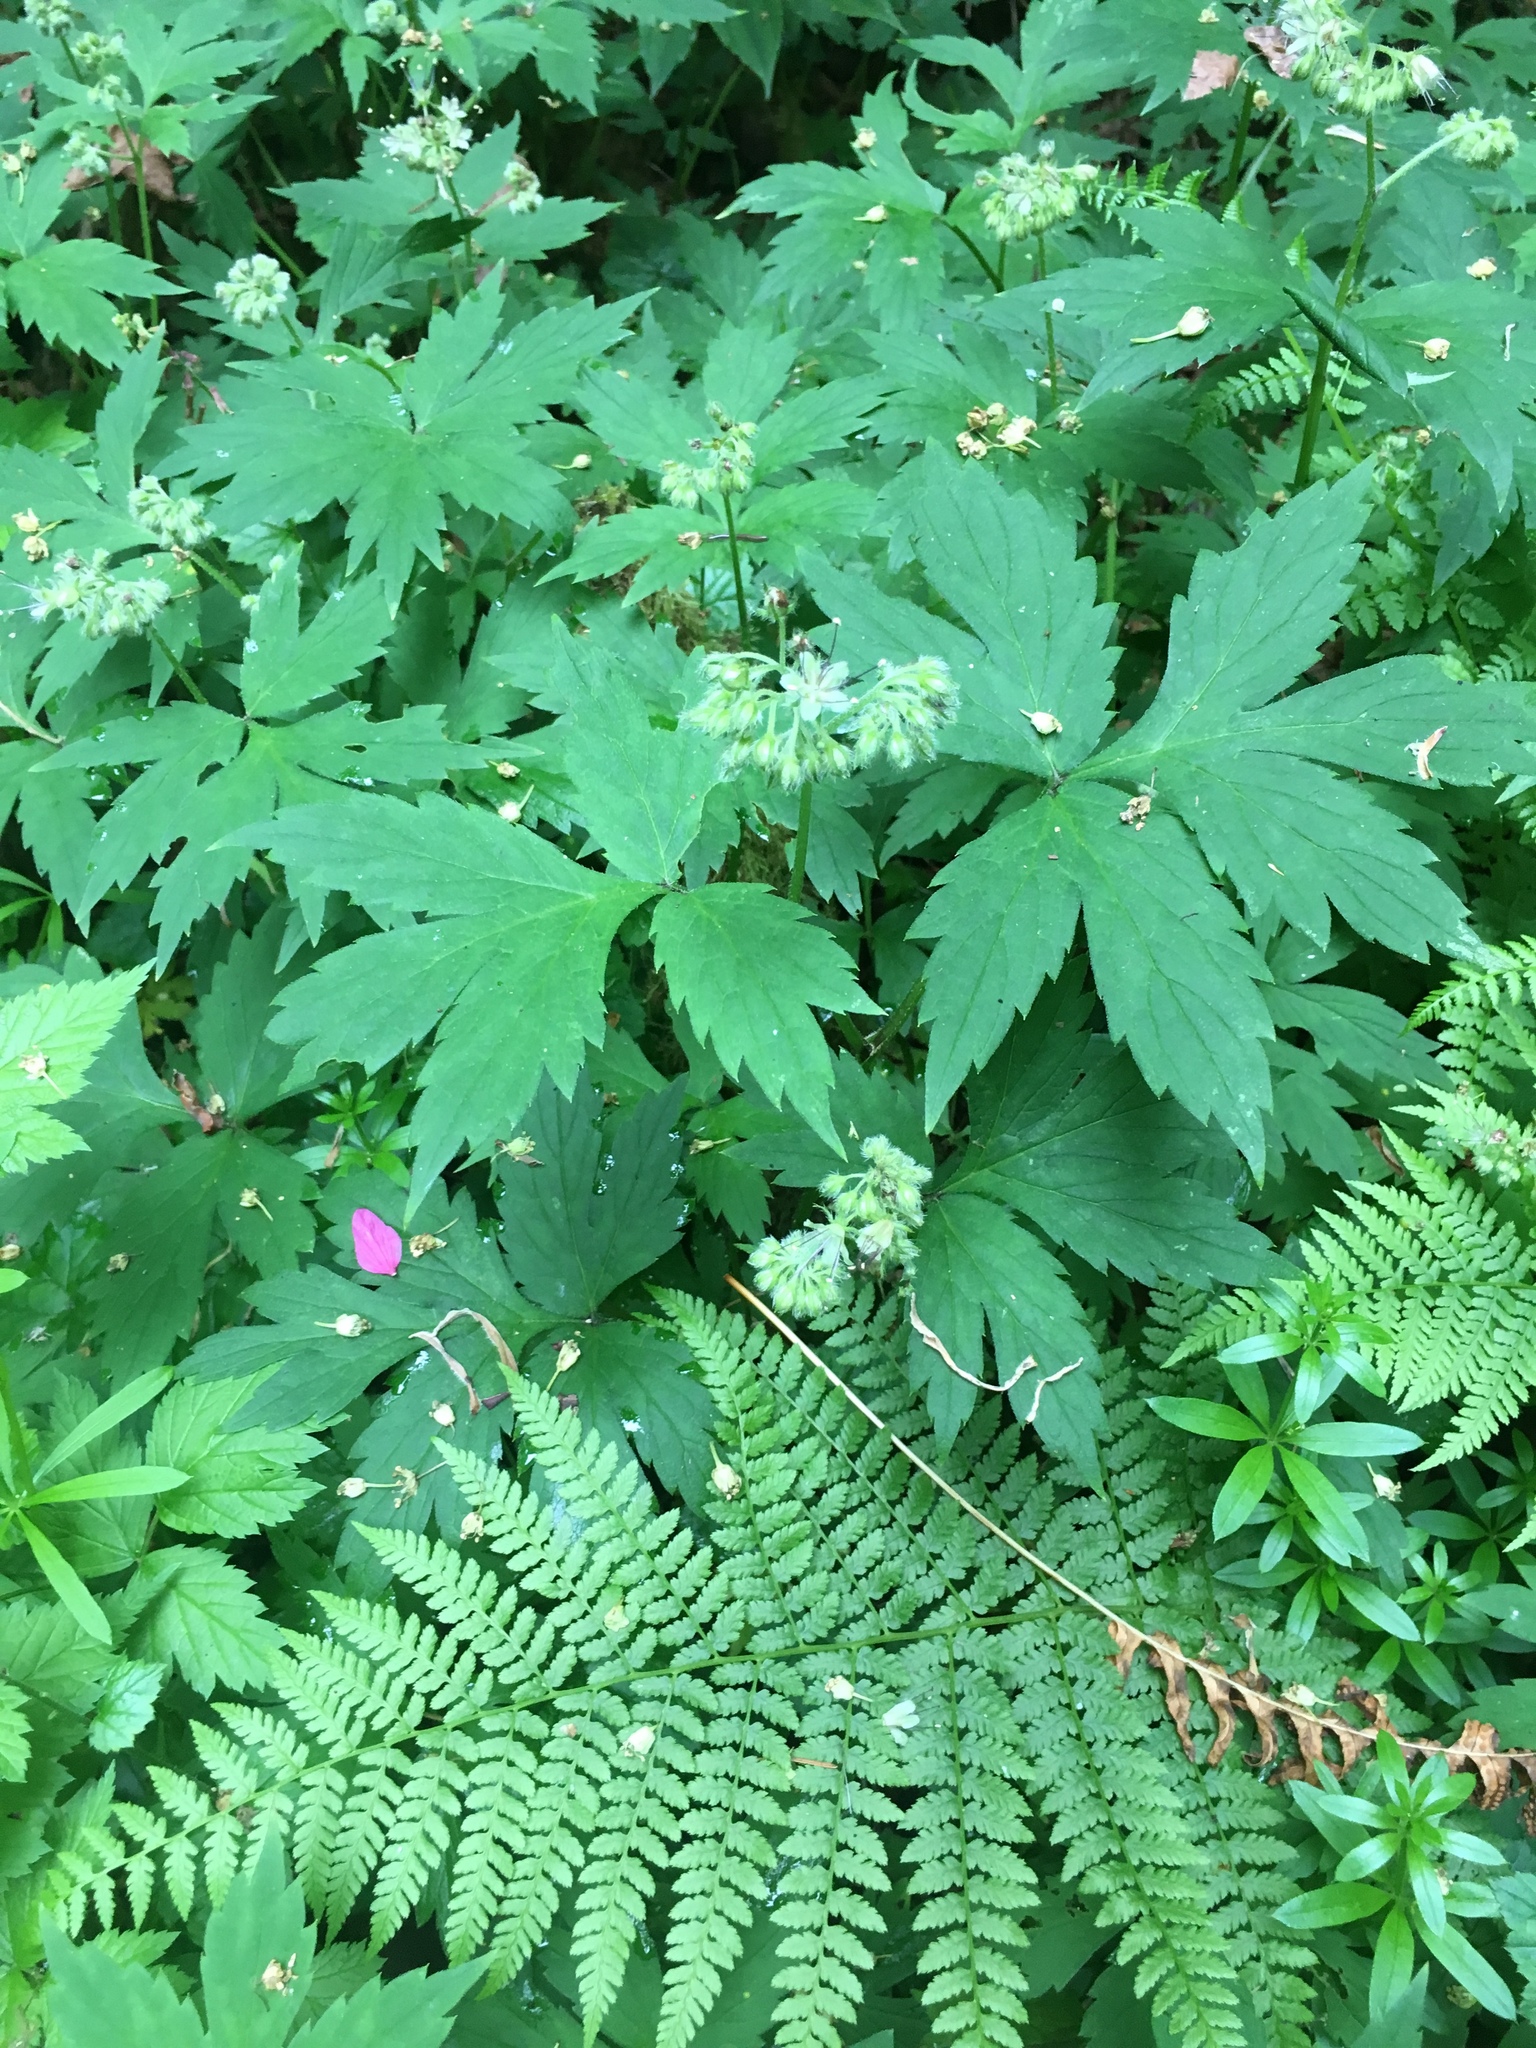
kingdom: Plantae
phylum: Tracheophyta
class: Magnoliopsida
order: Boraginales
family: Hydrophyllaceae
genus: Hydrophyllum
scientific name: Hydrophyllum tenuipes
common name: Pacific waterleaf
